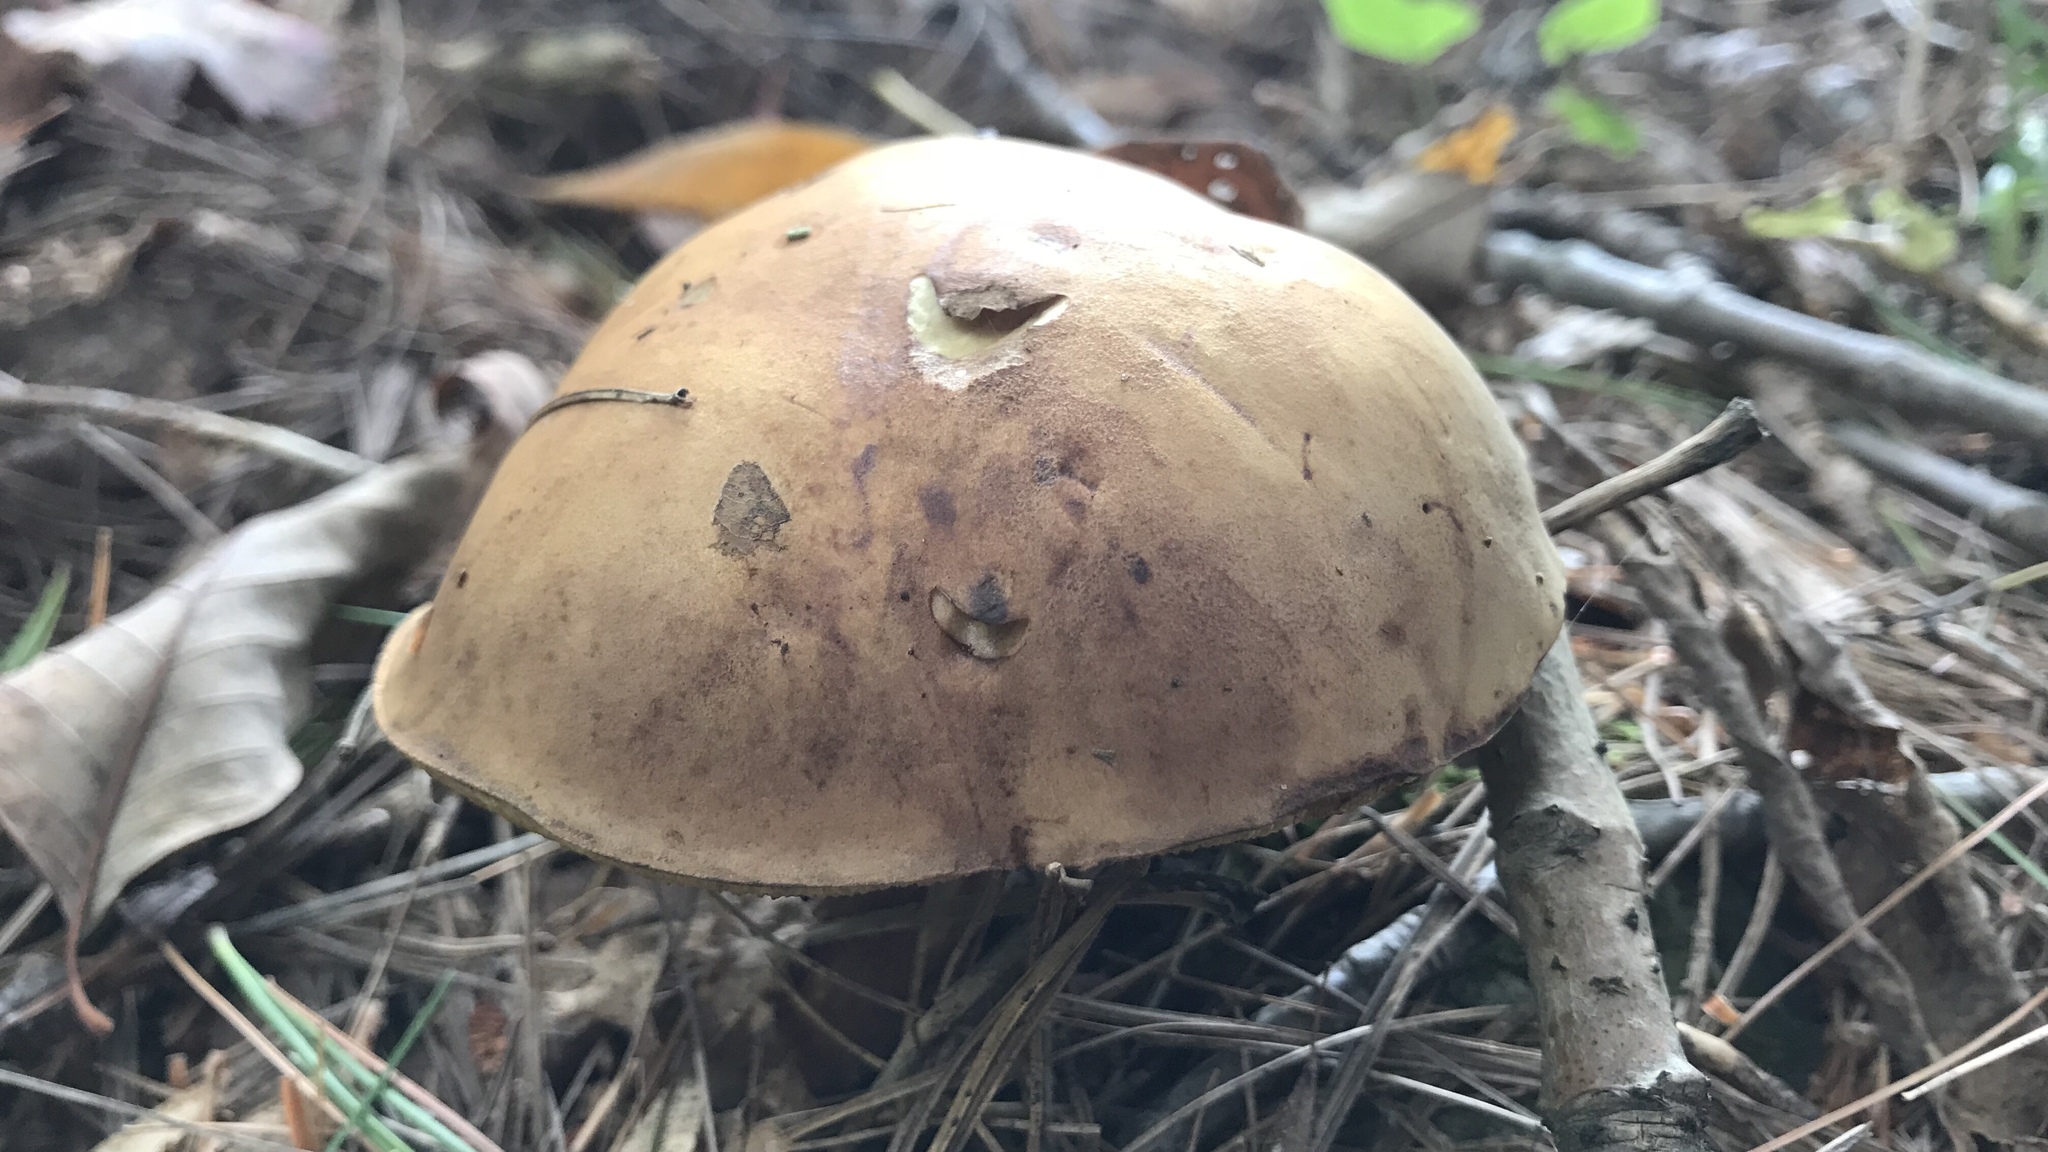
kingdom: Fungi
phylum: Basidiomycota
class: Agaricomycetes
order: Boletales
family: Boletaceae
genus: Imleria
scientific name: Imleria badia
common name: Bay bolete
